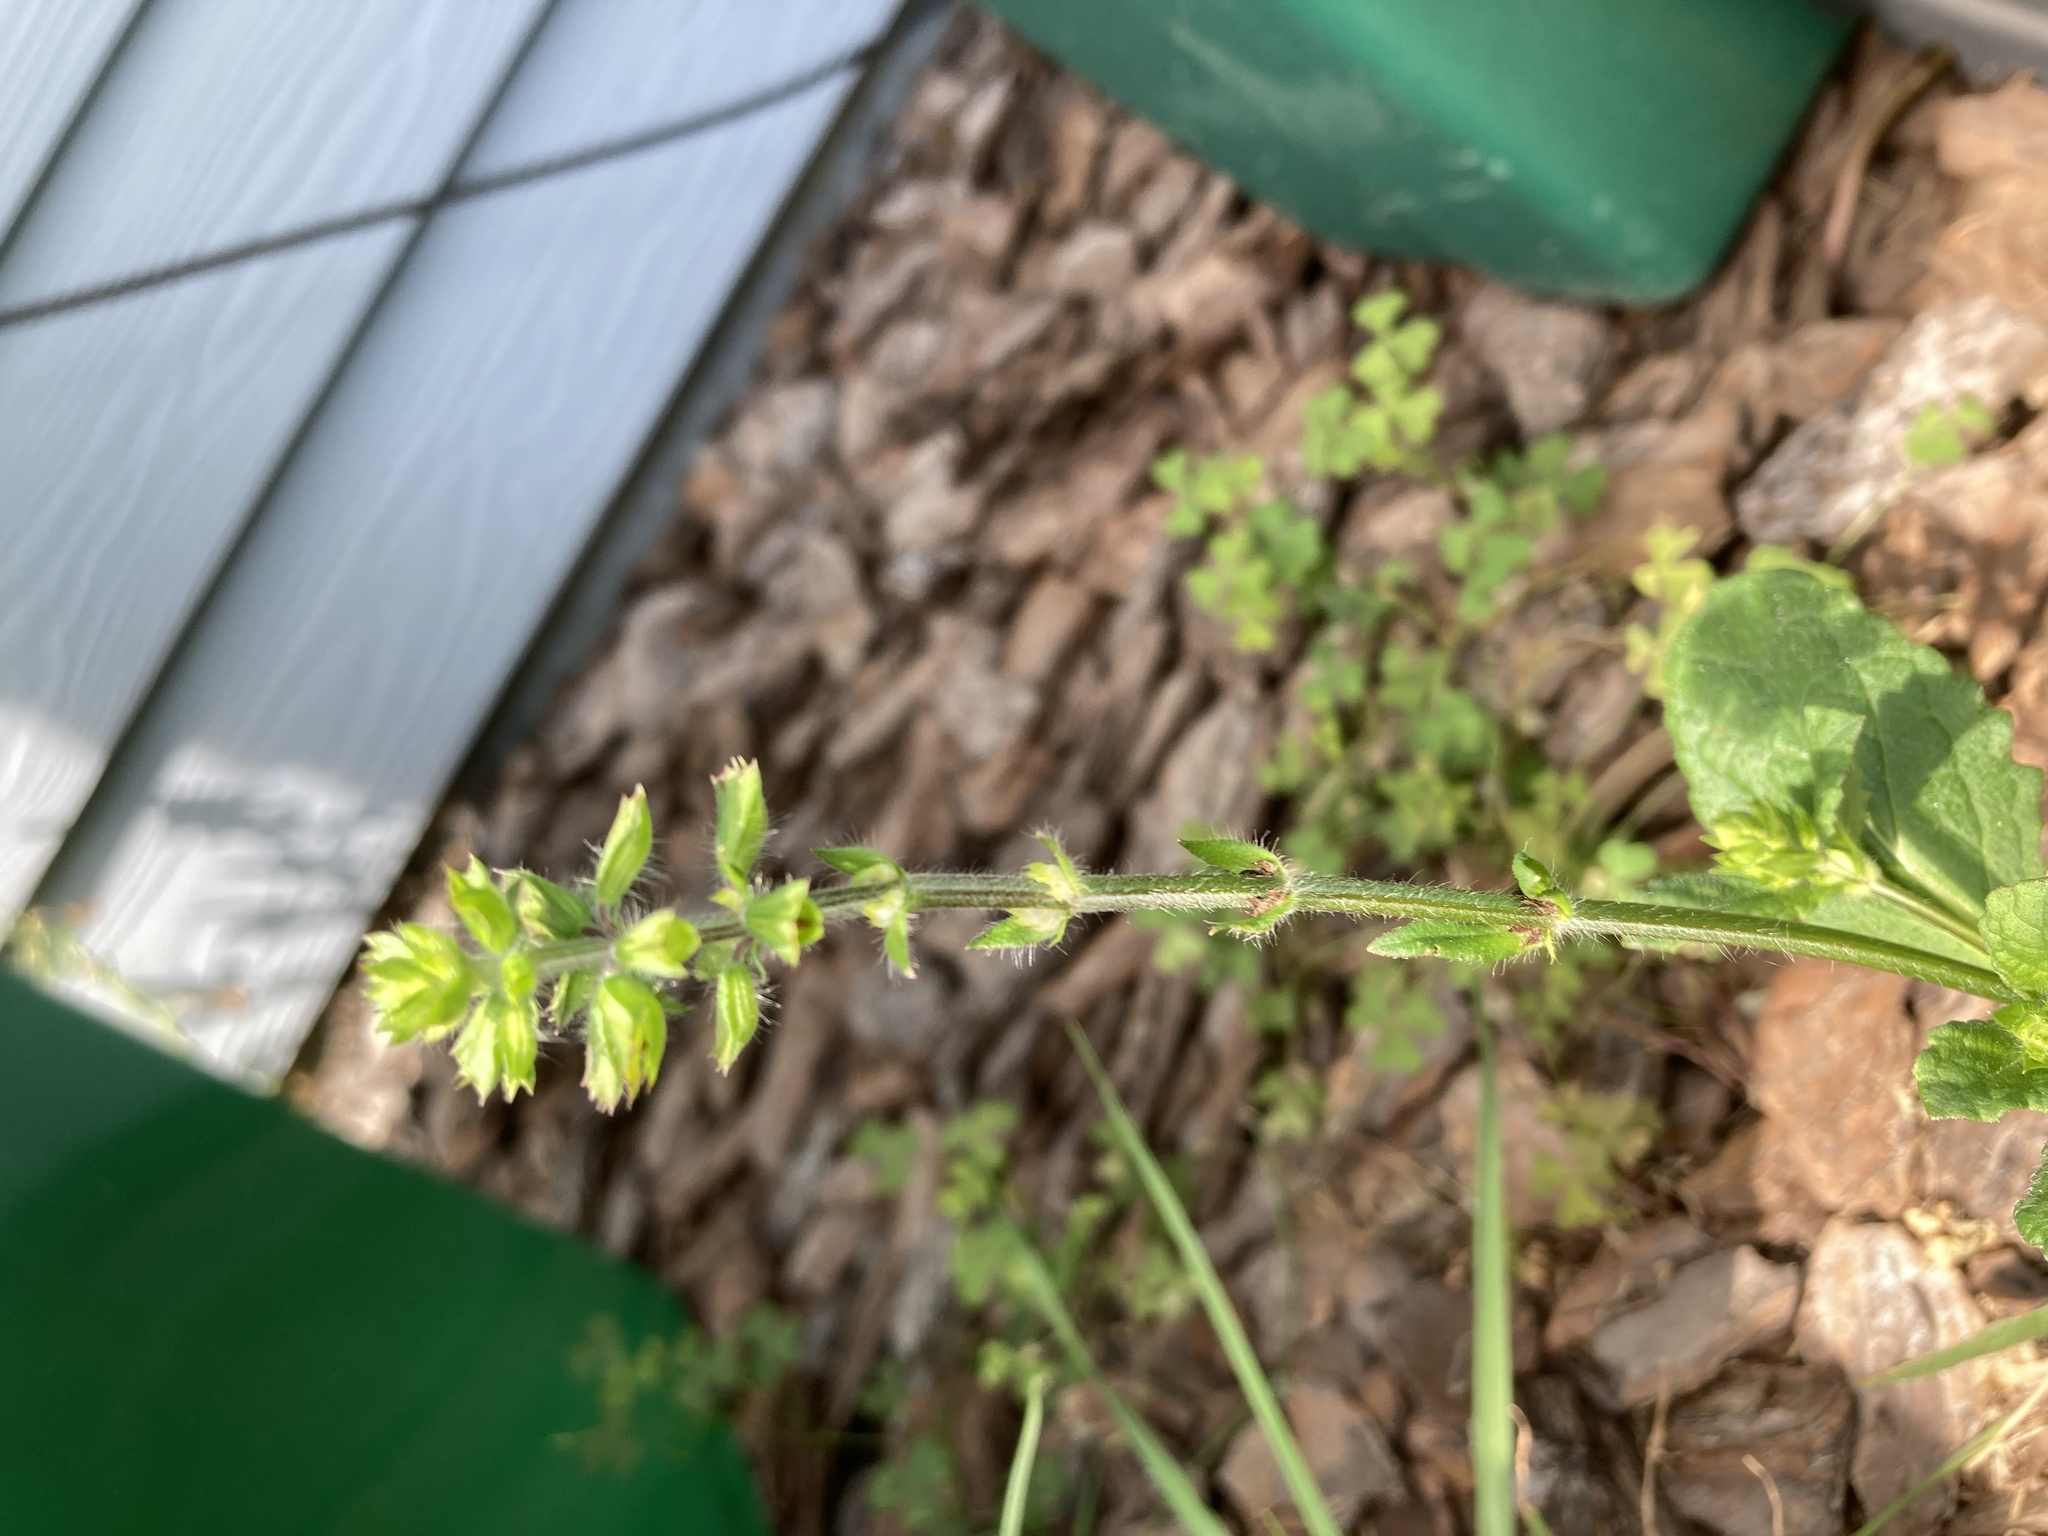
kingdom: Plantae
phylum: Tracheophyta
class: Magnoliopsida
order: Lamiales
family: Lamiaceae
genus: Salvia
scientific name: Salvia lyrata
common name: Cancerweed
